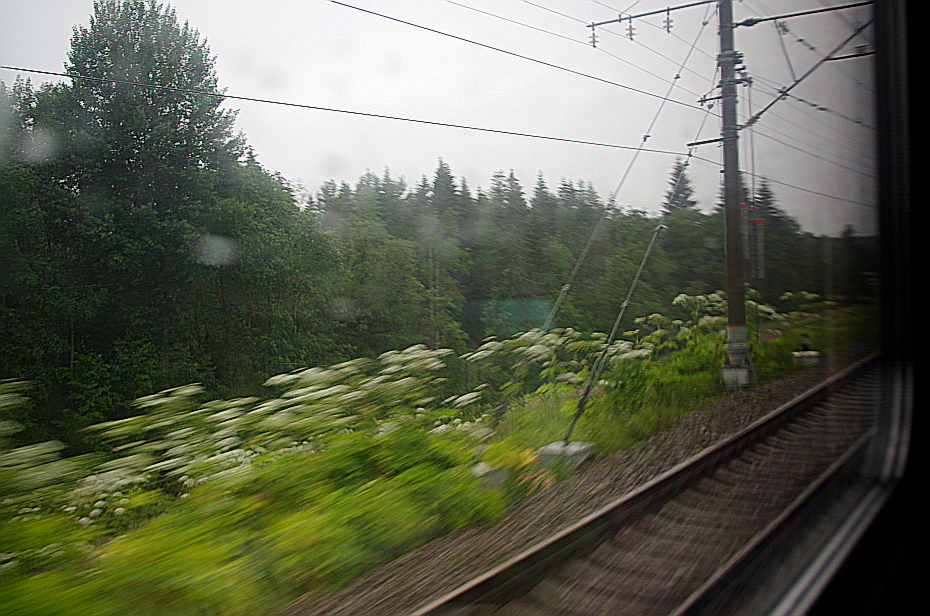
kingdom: Plantae
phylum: Tracheophyta
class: Magnoliopsida
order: Apiales
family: Apiaceae
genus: Heracleum
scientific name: Heracleum sosnowskyi
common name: Sosnowsky's hogweed
